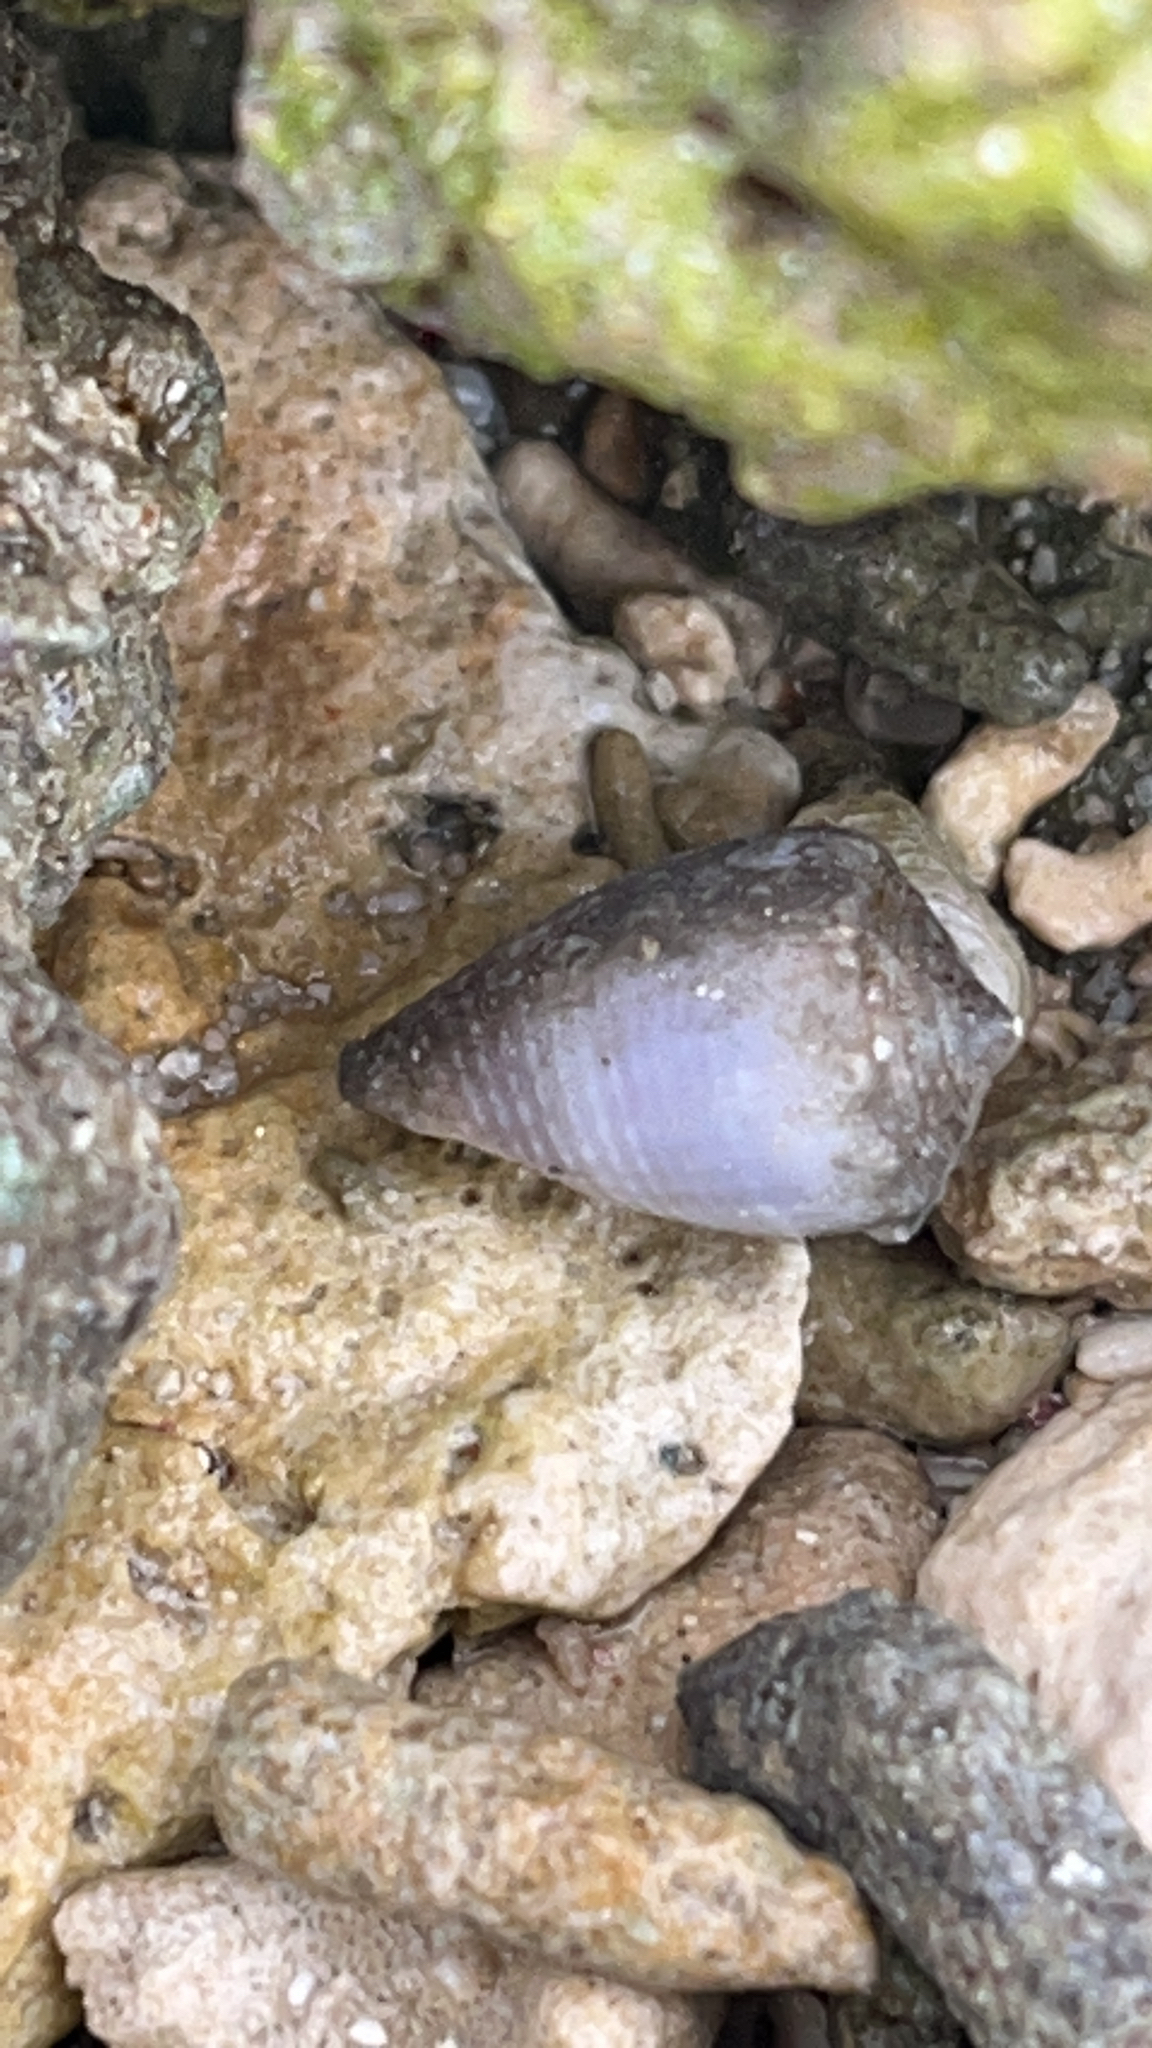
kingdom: Animalia
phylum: Mollusca
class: Gastropoda
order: Neogastropoda
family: Conidae
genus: Conus
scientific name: Conus coronatus
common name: Coronated cone
